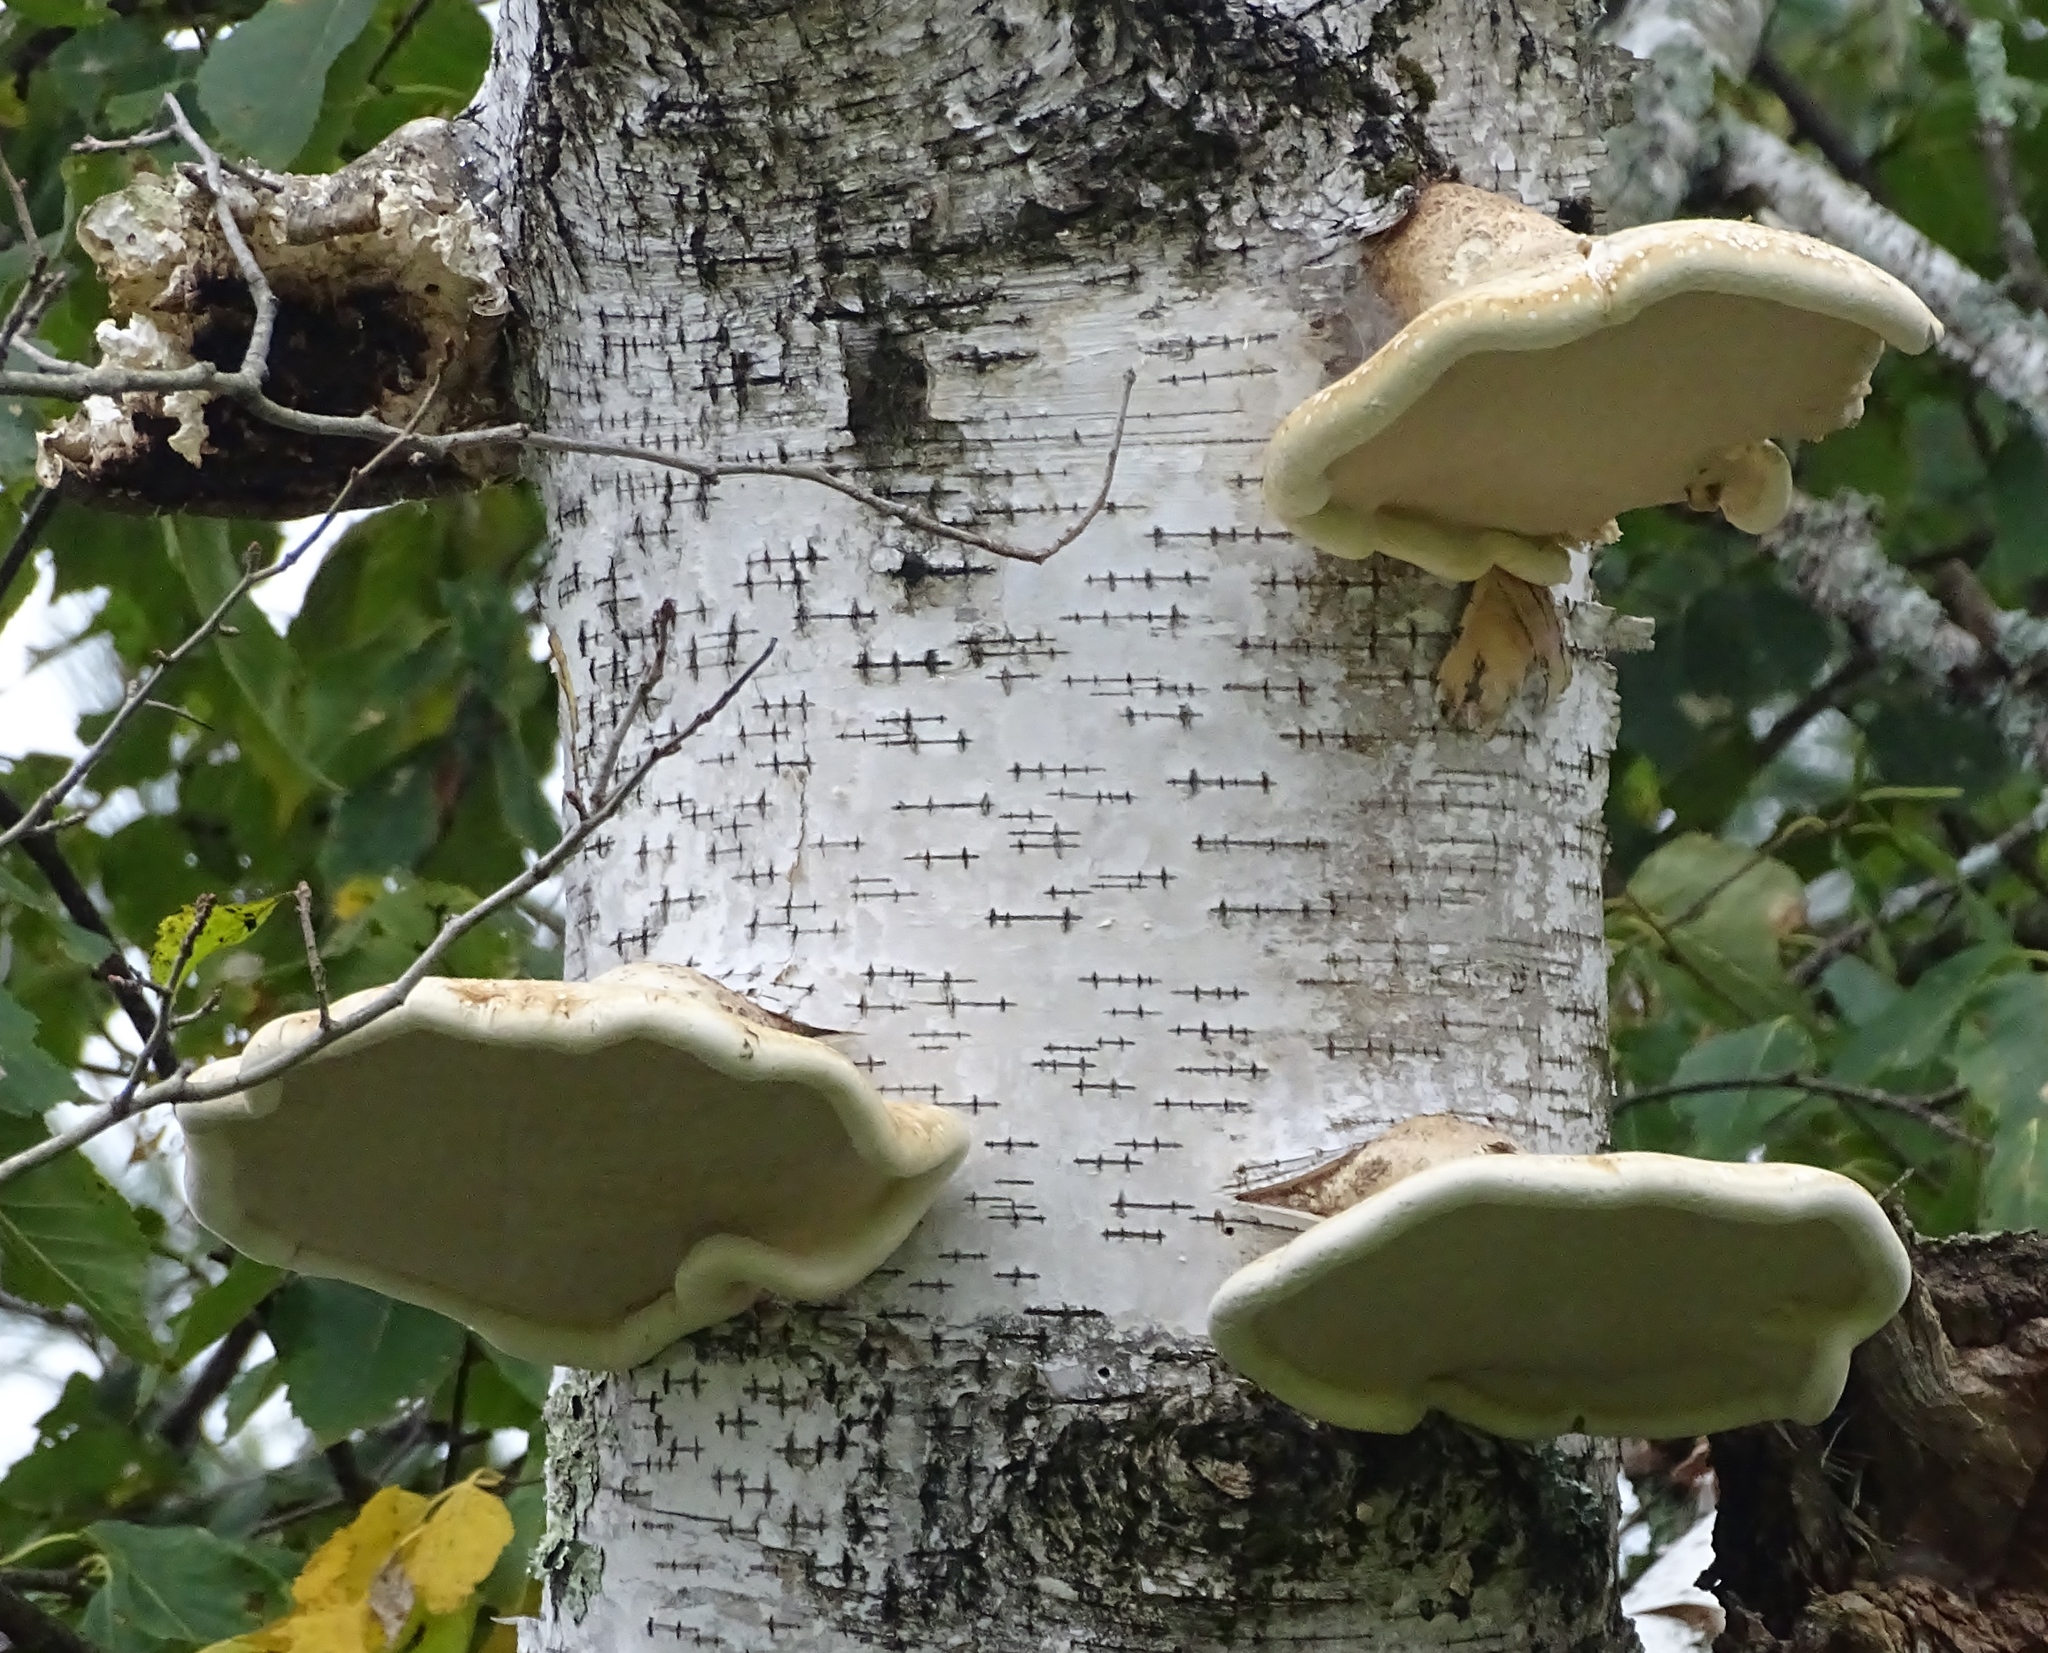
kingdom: Fungi
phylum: Basidiomycota
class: Agaricomycetes
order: Polyporales
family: Fomitopsidaceae
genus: Fomitopsis
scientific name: Fomitopsis betulina
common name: Birch polypore
